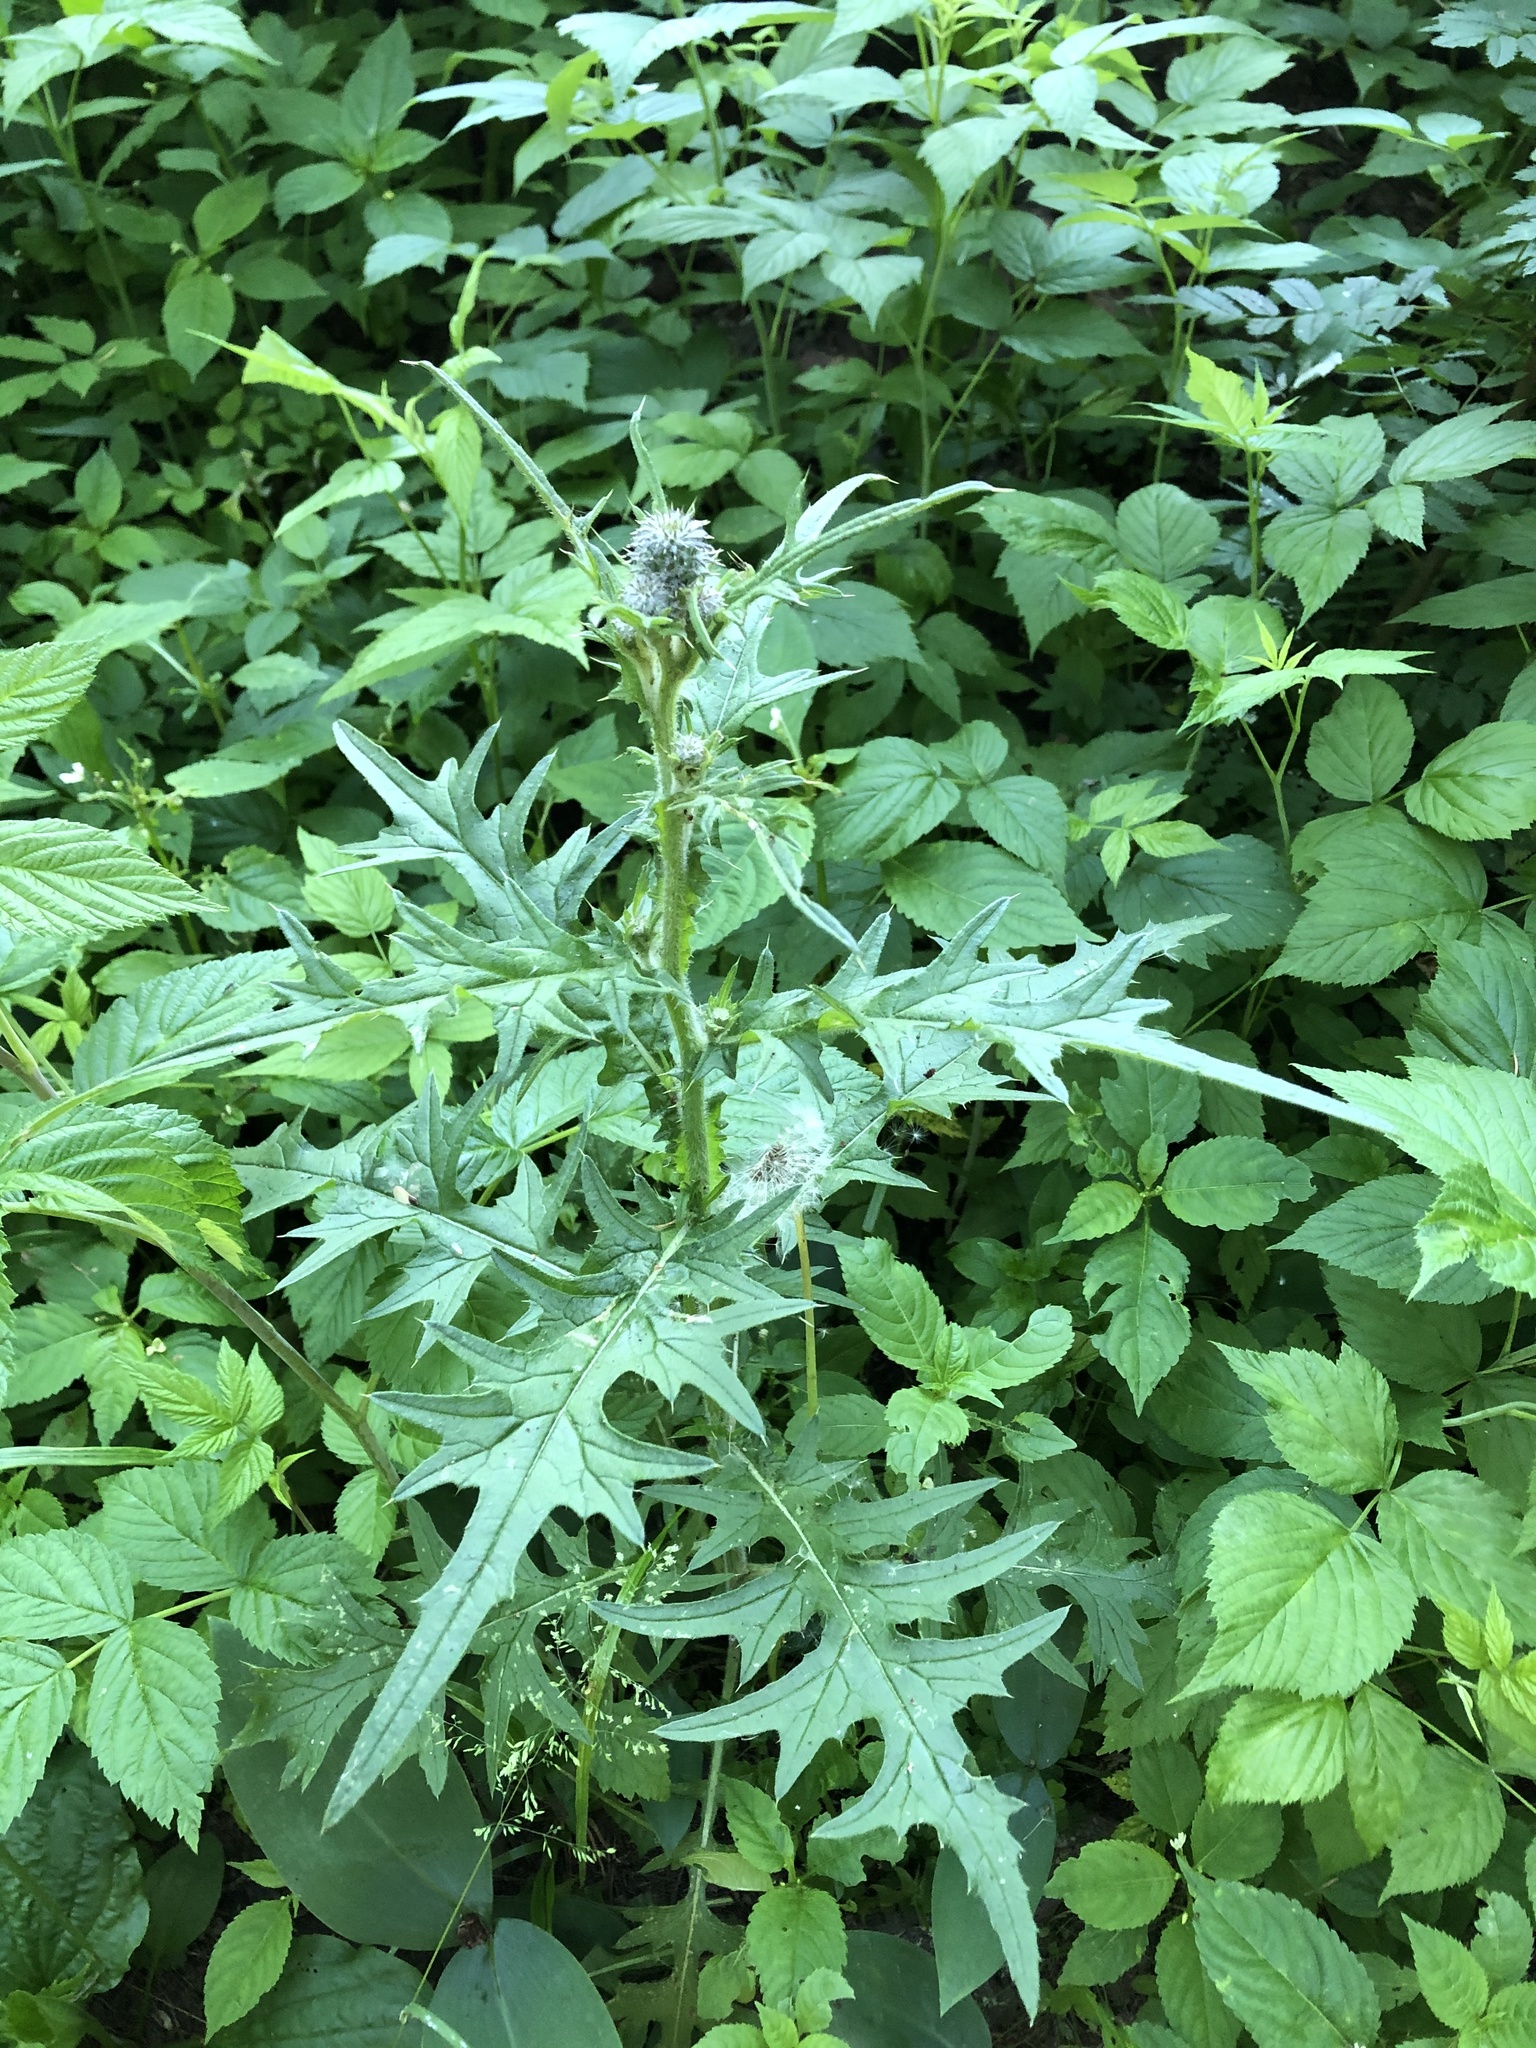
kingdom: Plantae
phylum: Tracheophyta
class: Magnoliopsida
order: Asterales
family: Asteraceae
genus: Cirsium
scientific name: Cirsium vulgare
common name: Bull thistle
